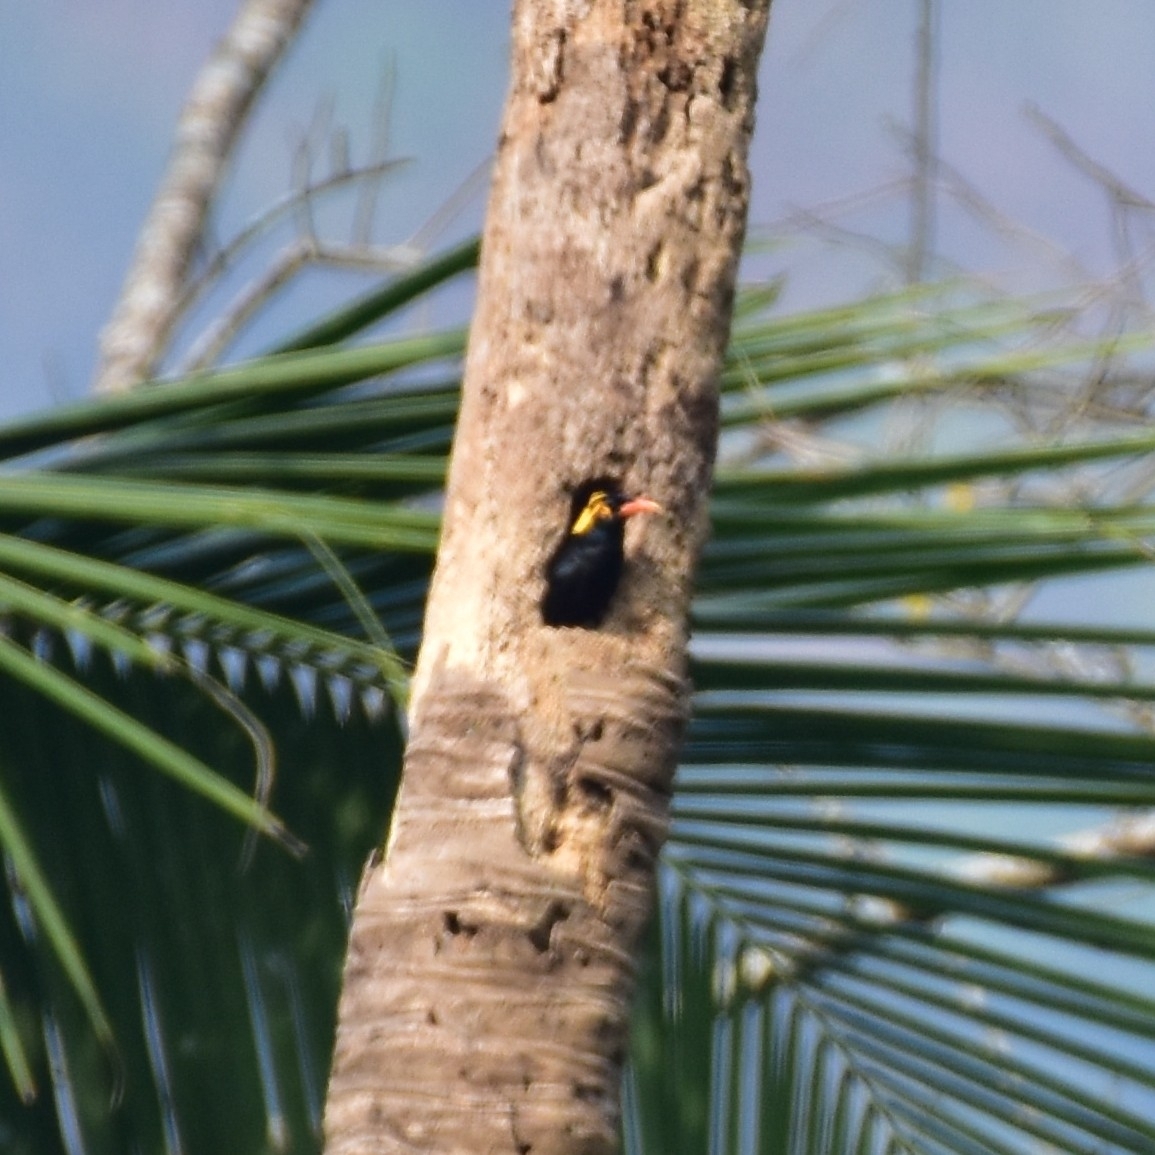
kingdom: Animalia
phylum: Chordata
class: Aves
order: Passeriformes
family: Sturnidae
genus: Gracula
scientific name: Gracula indica
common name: Southern hill myna
